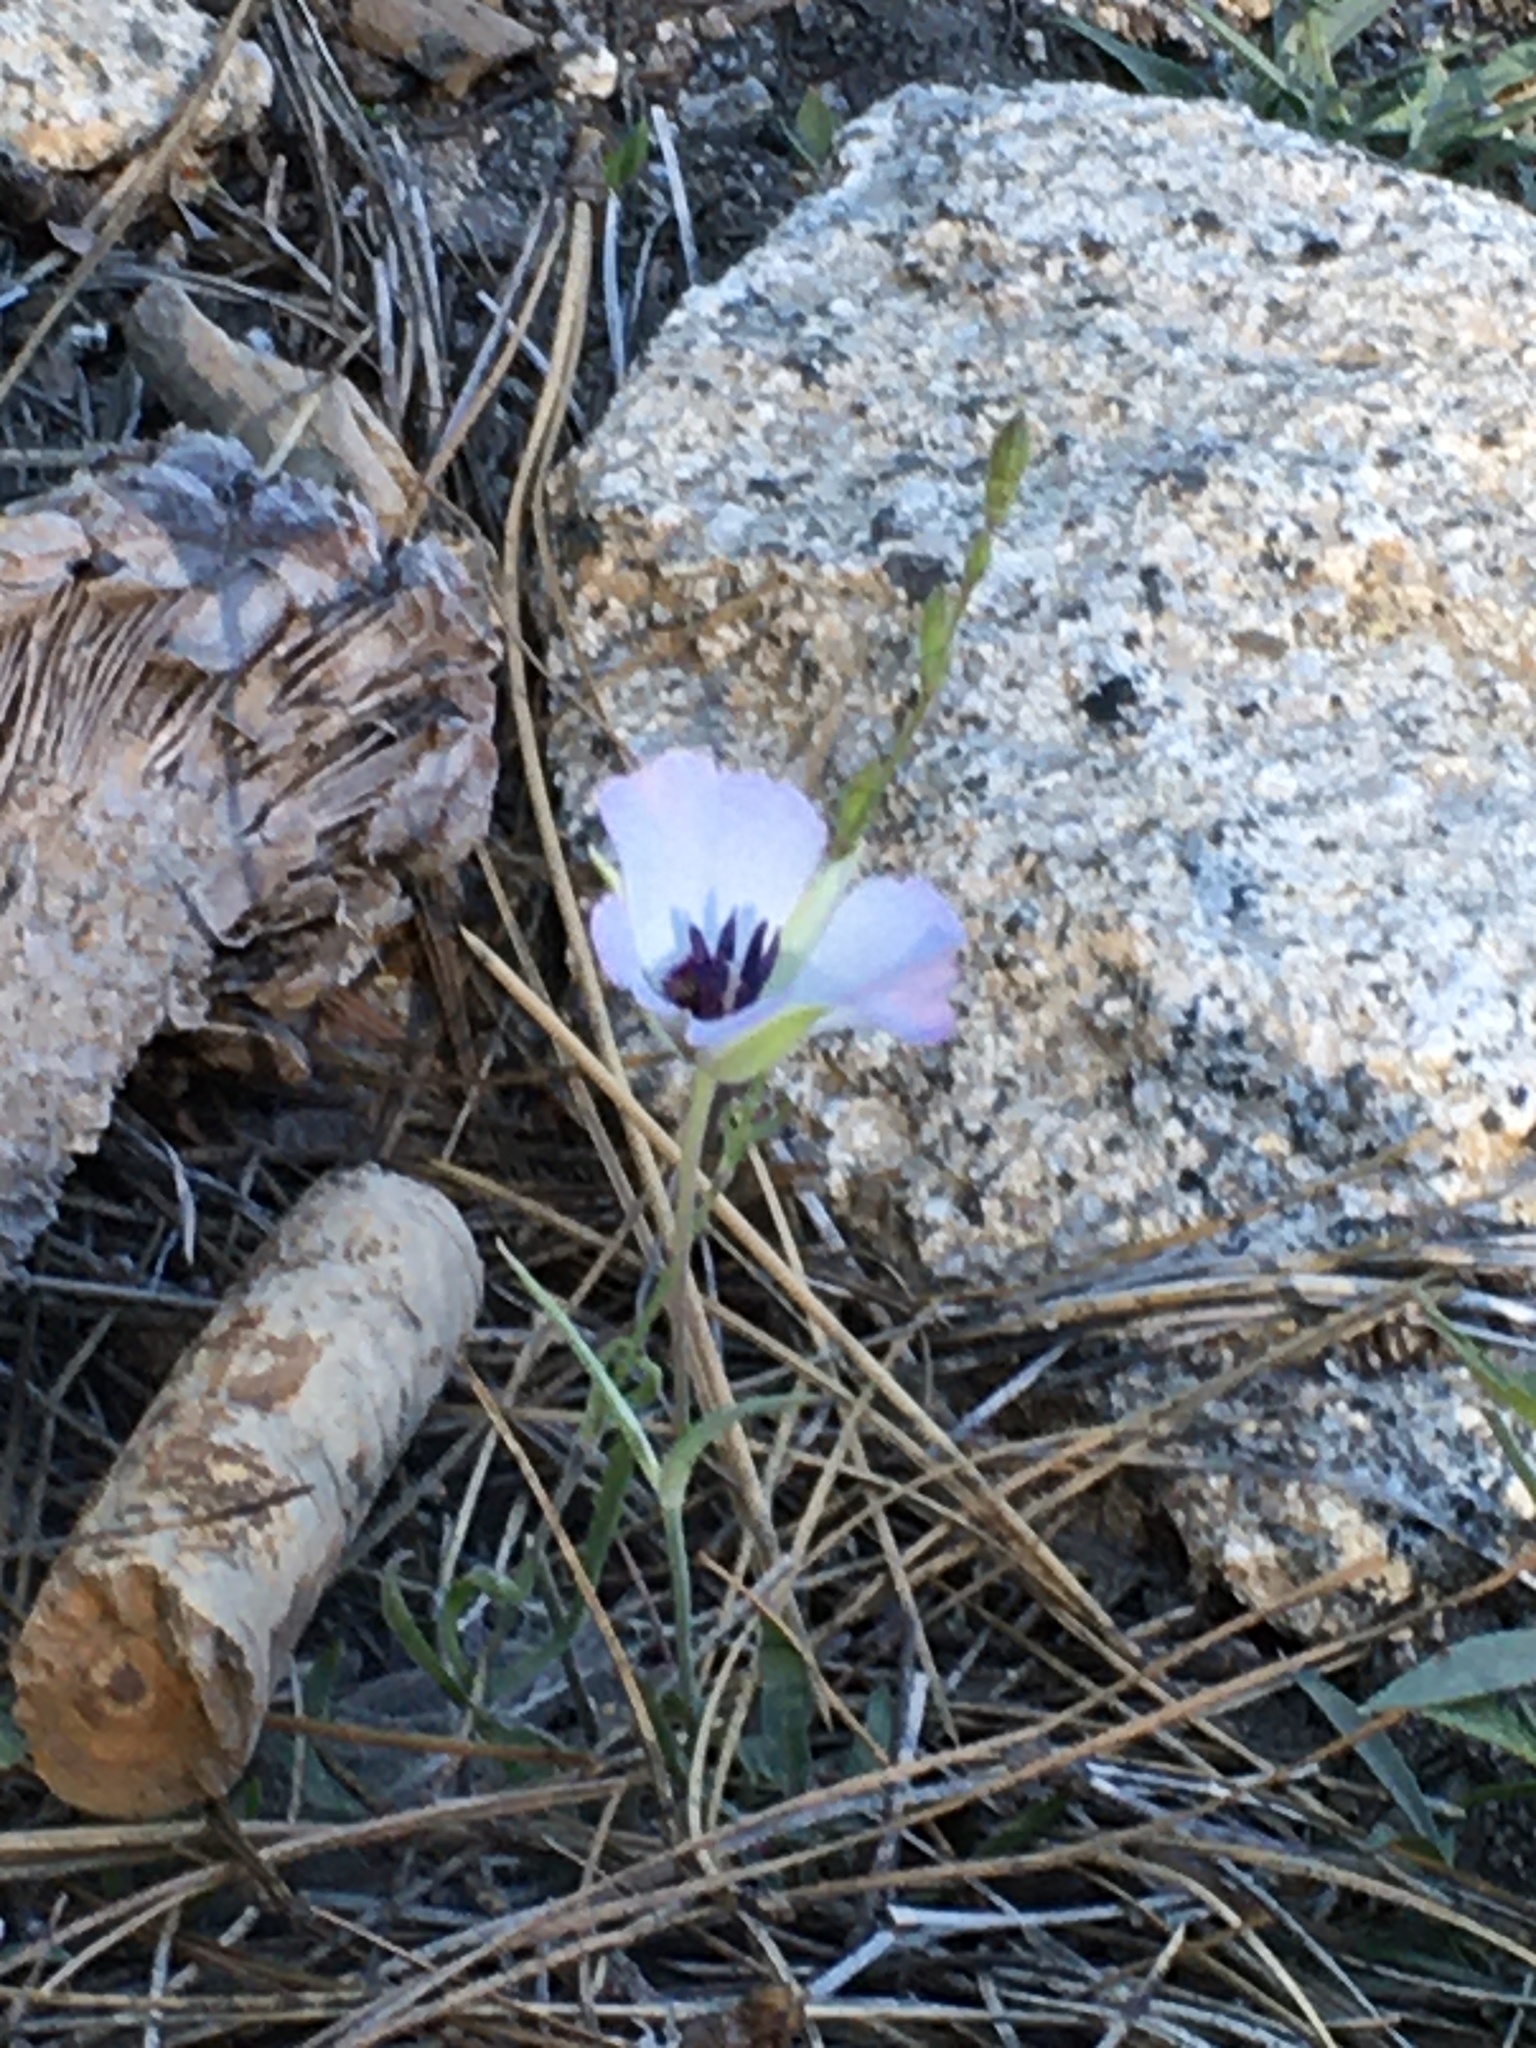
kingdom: Plantae
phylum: Tracheophyta
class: Liliopsida
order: Liliales
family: Liliaceae
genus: Calochortus
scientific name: Calochortus invenustus
